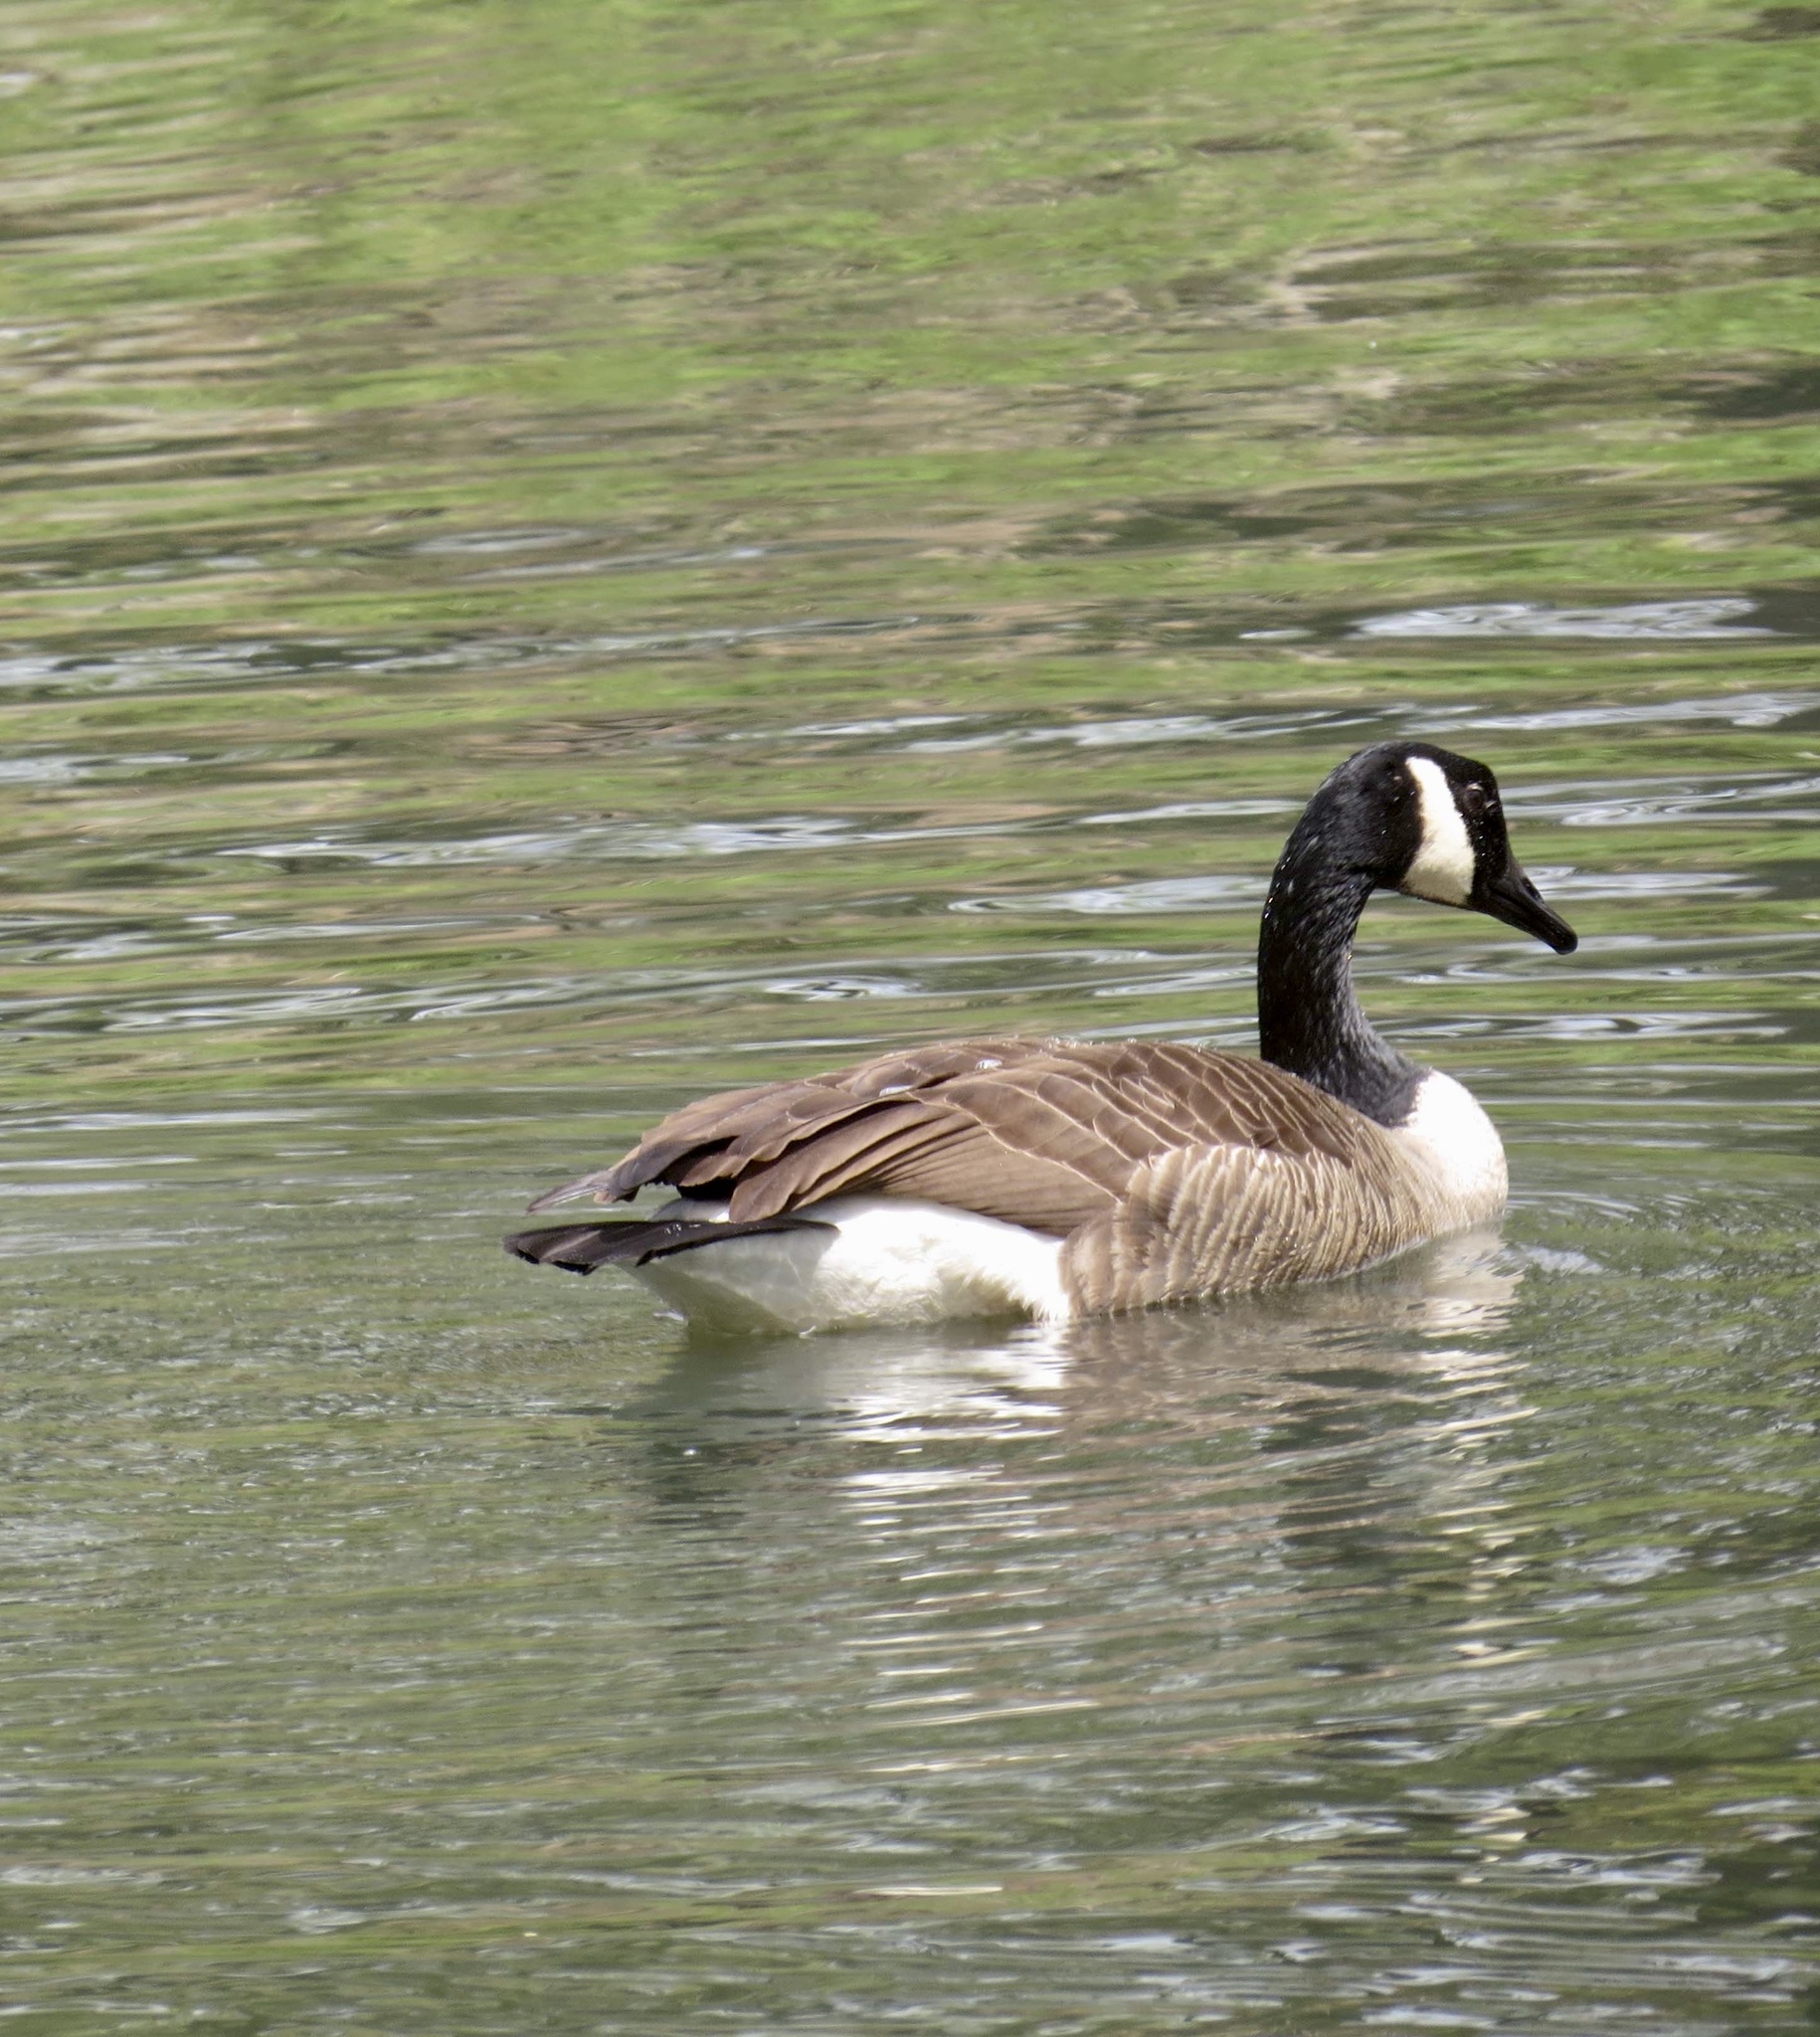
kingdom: Animalia
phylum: Chordata
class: Aves
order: Anseriformes
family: Anatidae
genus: Branta
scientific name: Branta canadensis
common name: Canada goose
